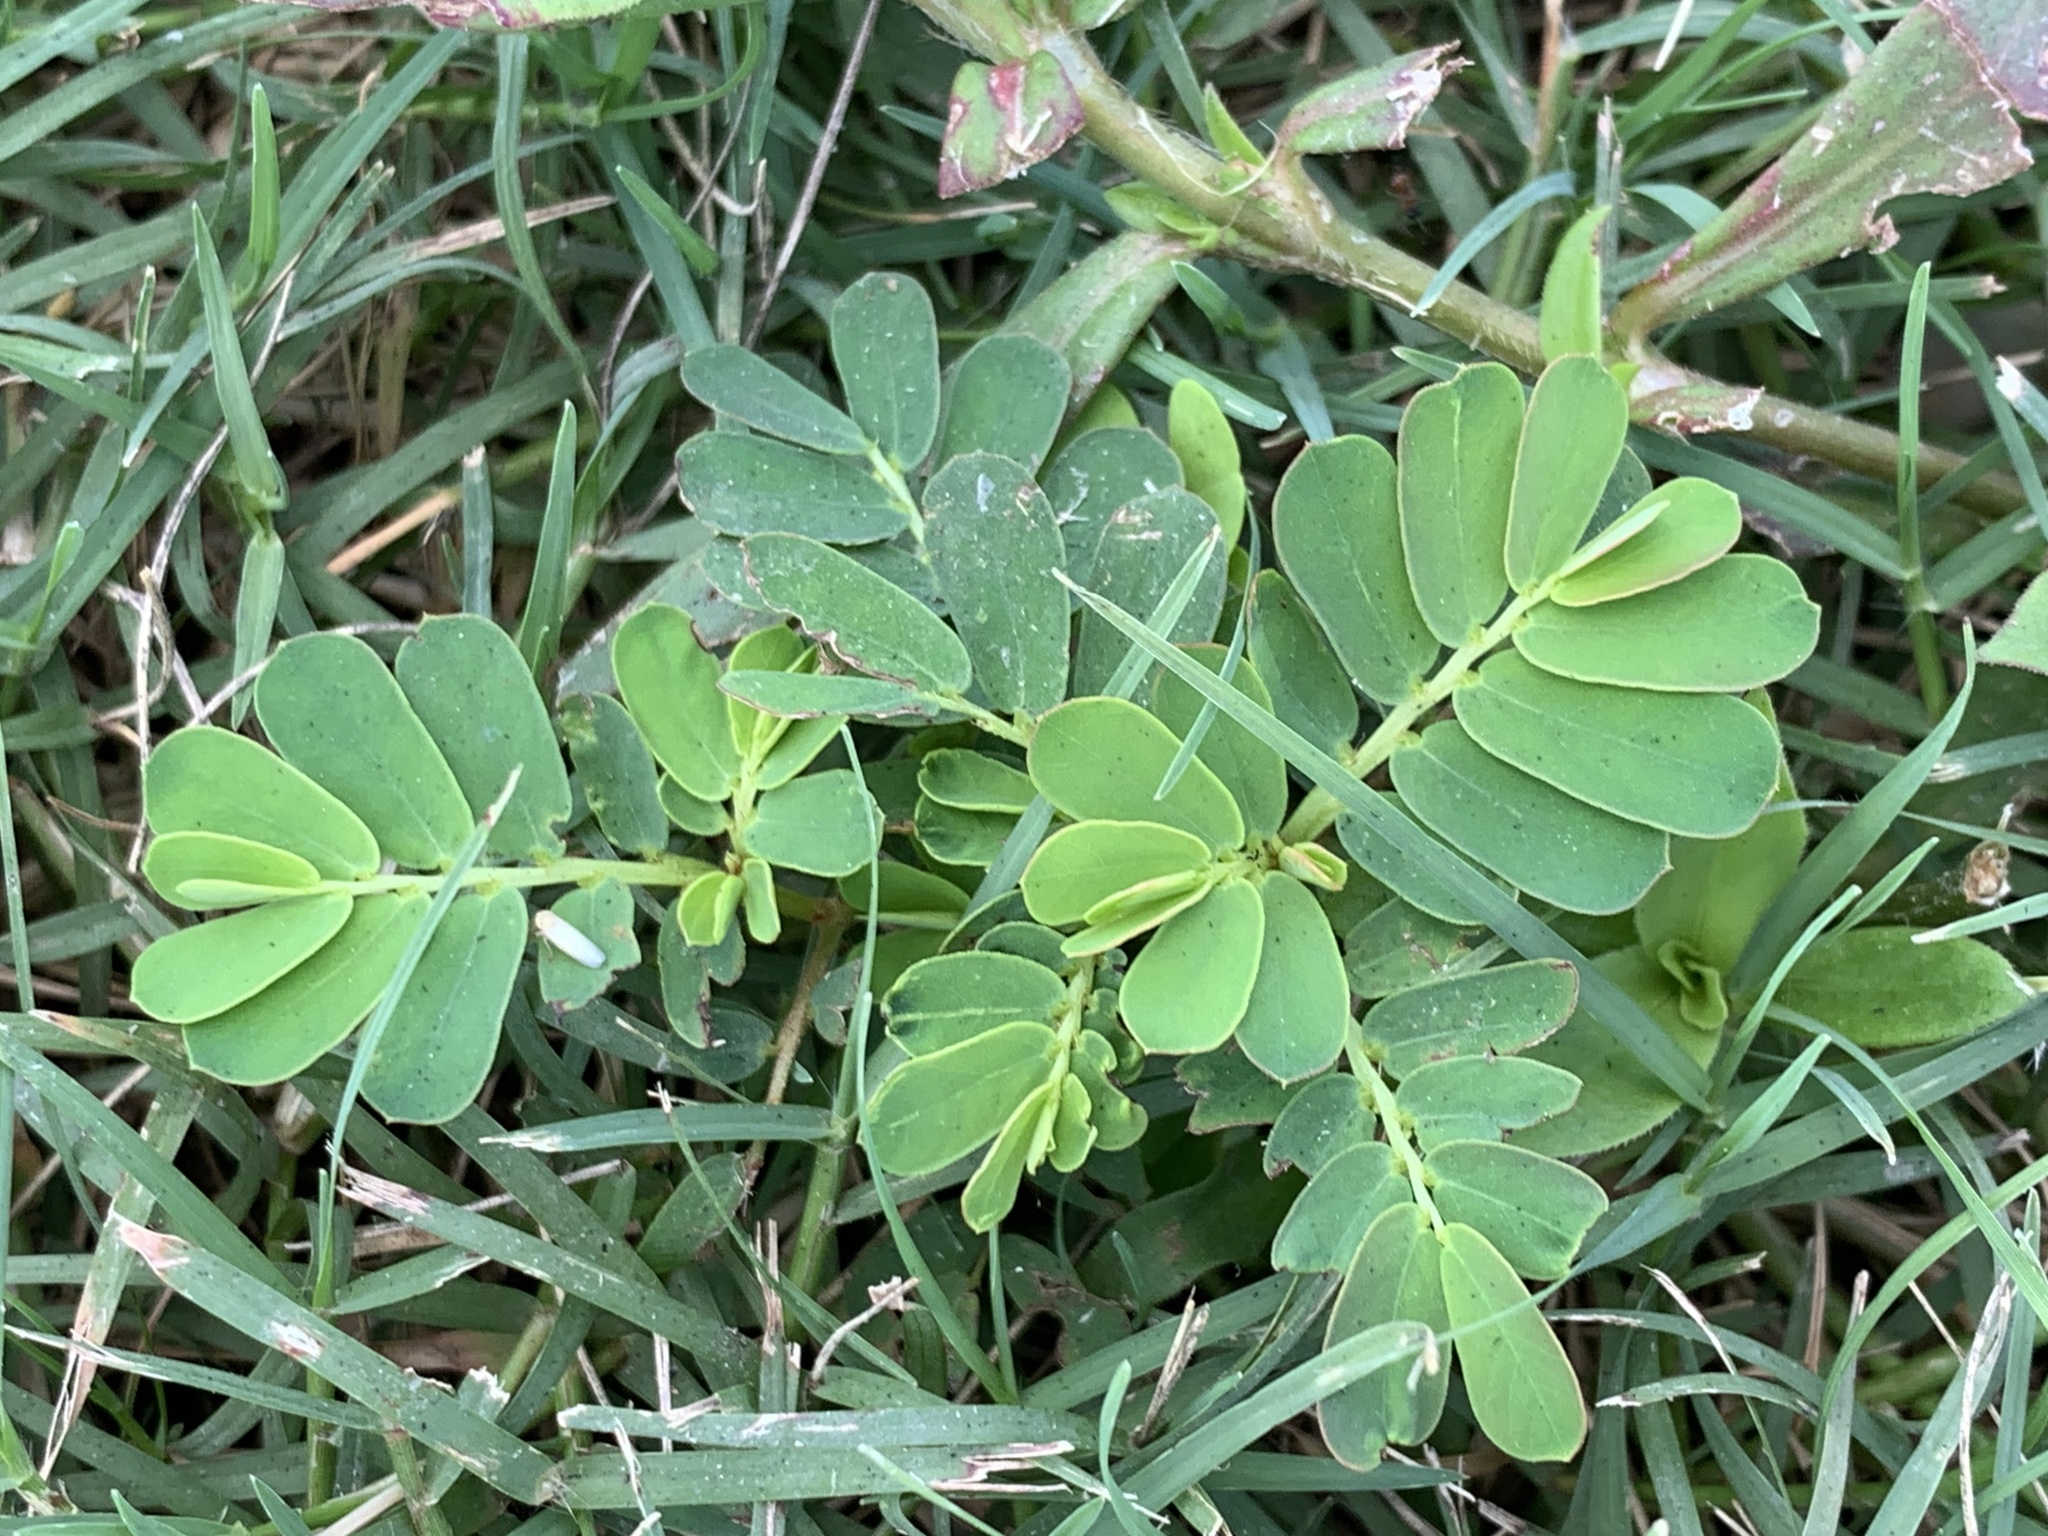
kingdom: Plantae
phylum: Tracheophyta
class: Magnoliopsida
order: Malpighiales
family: Phyllanthaceae
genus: Phyllanthus
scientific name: Phyllanthus urinaria
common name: Chamber bitter
